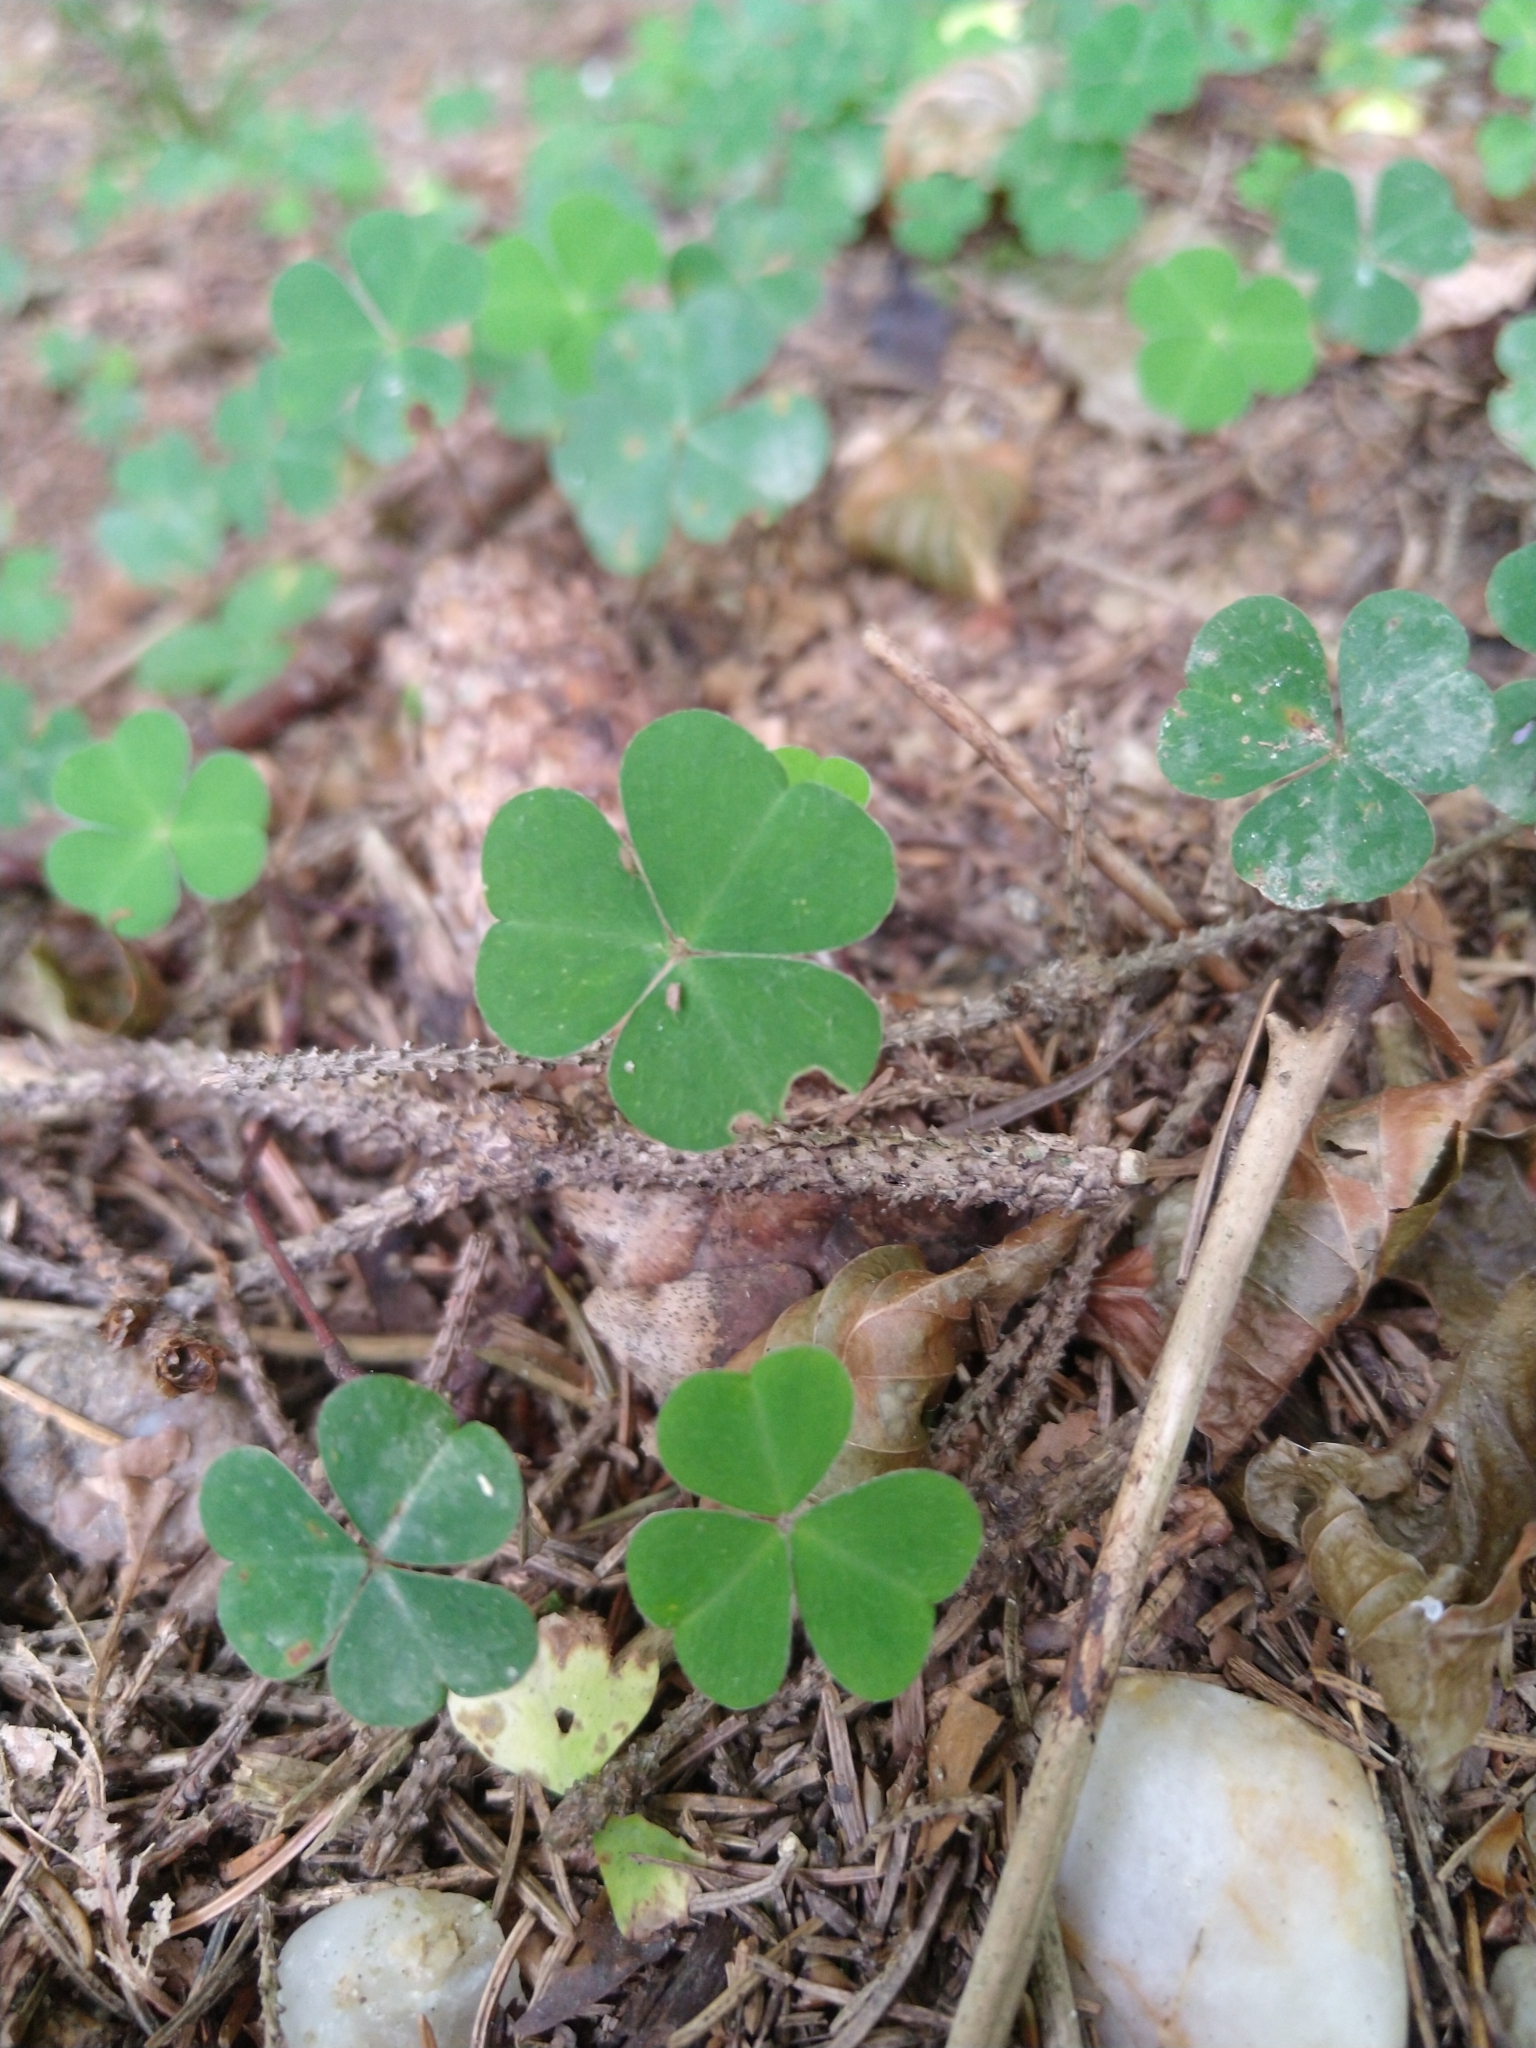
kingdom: Plantae
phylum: Tracheophyta
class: Magnoliopsida
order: Oxalidales
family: Oxalidaceae
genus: Oxalis
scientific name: Oxalis acetosella
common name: Wood-sorrel
